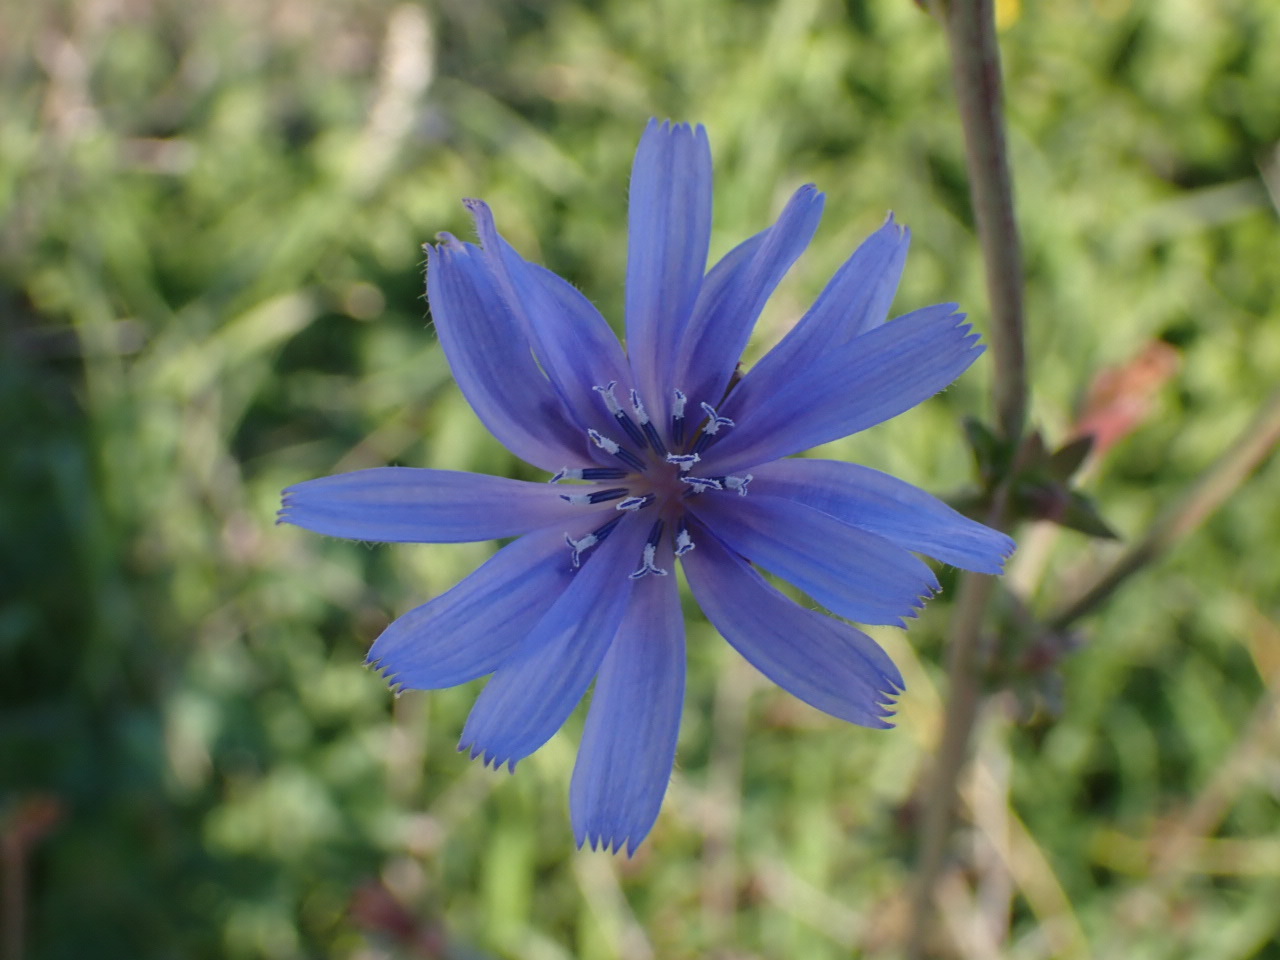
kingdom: Plantae
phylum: Tracheophyta
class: Magnoliopsida
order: Asterales
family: Asteraceae
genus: Cichorium
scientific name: Cichorium intybus
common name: Chicory
